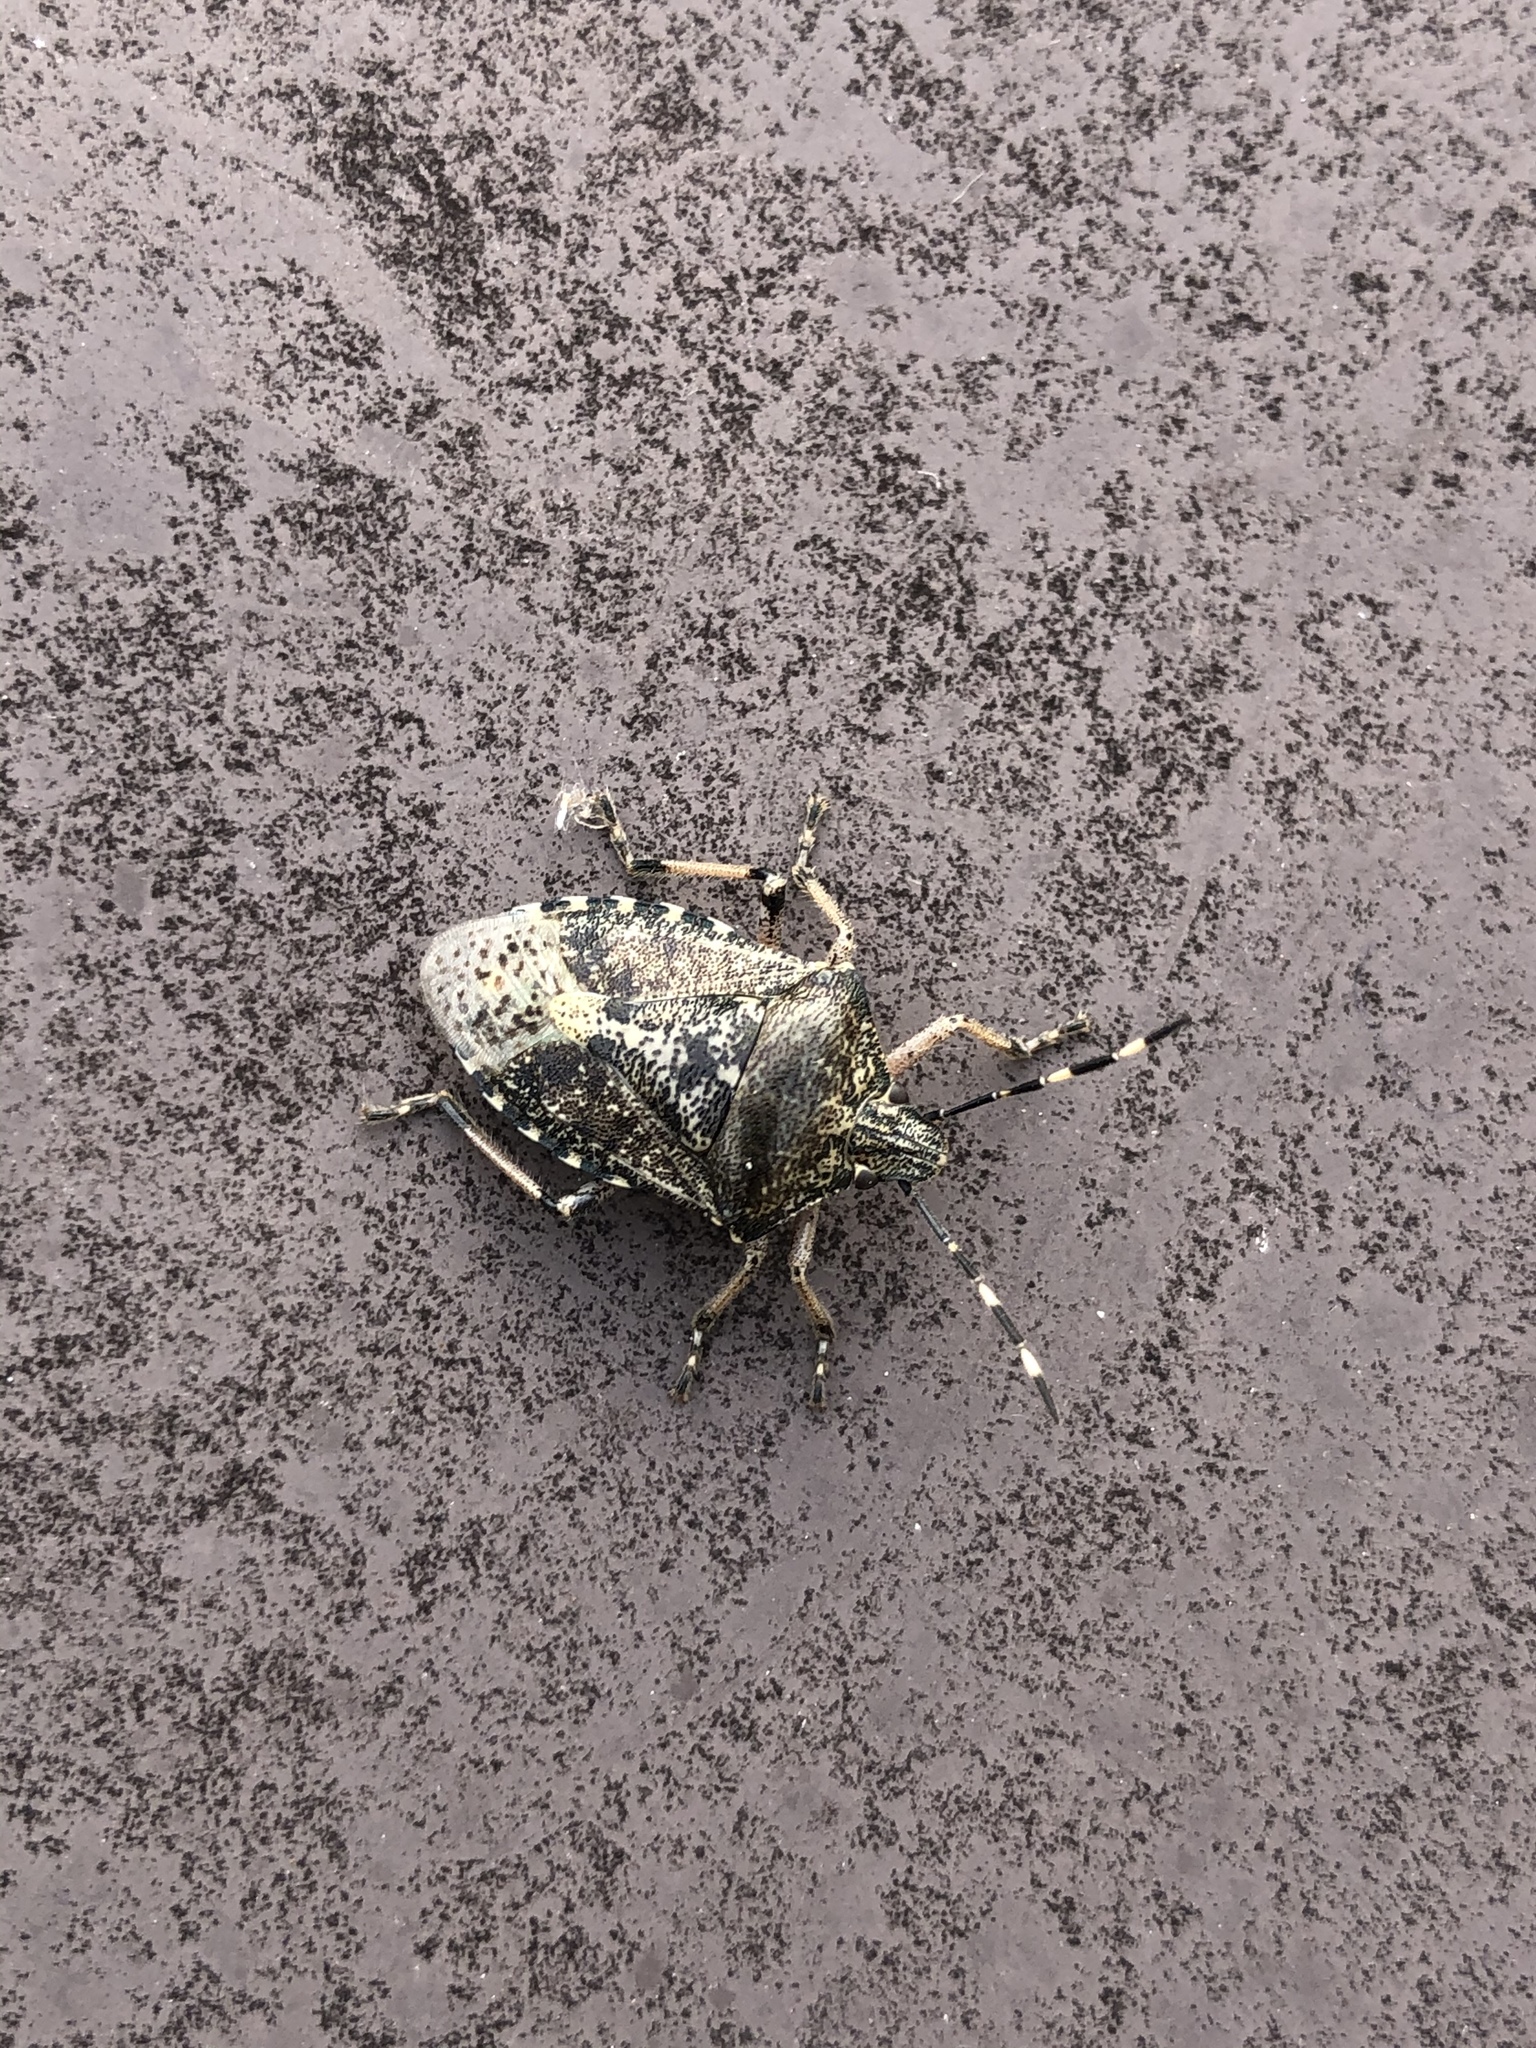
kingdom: Animalia
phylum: Arthropoda
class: Insecta
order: Hemiptera
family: Pentatomidae
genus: Rhaphigaster
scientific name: Rhaphigaster nebulosa
